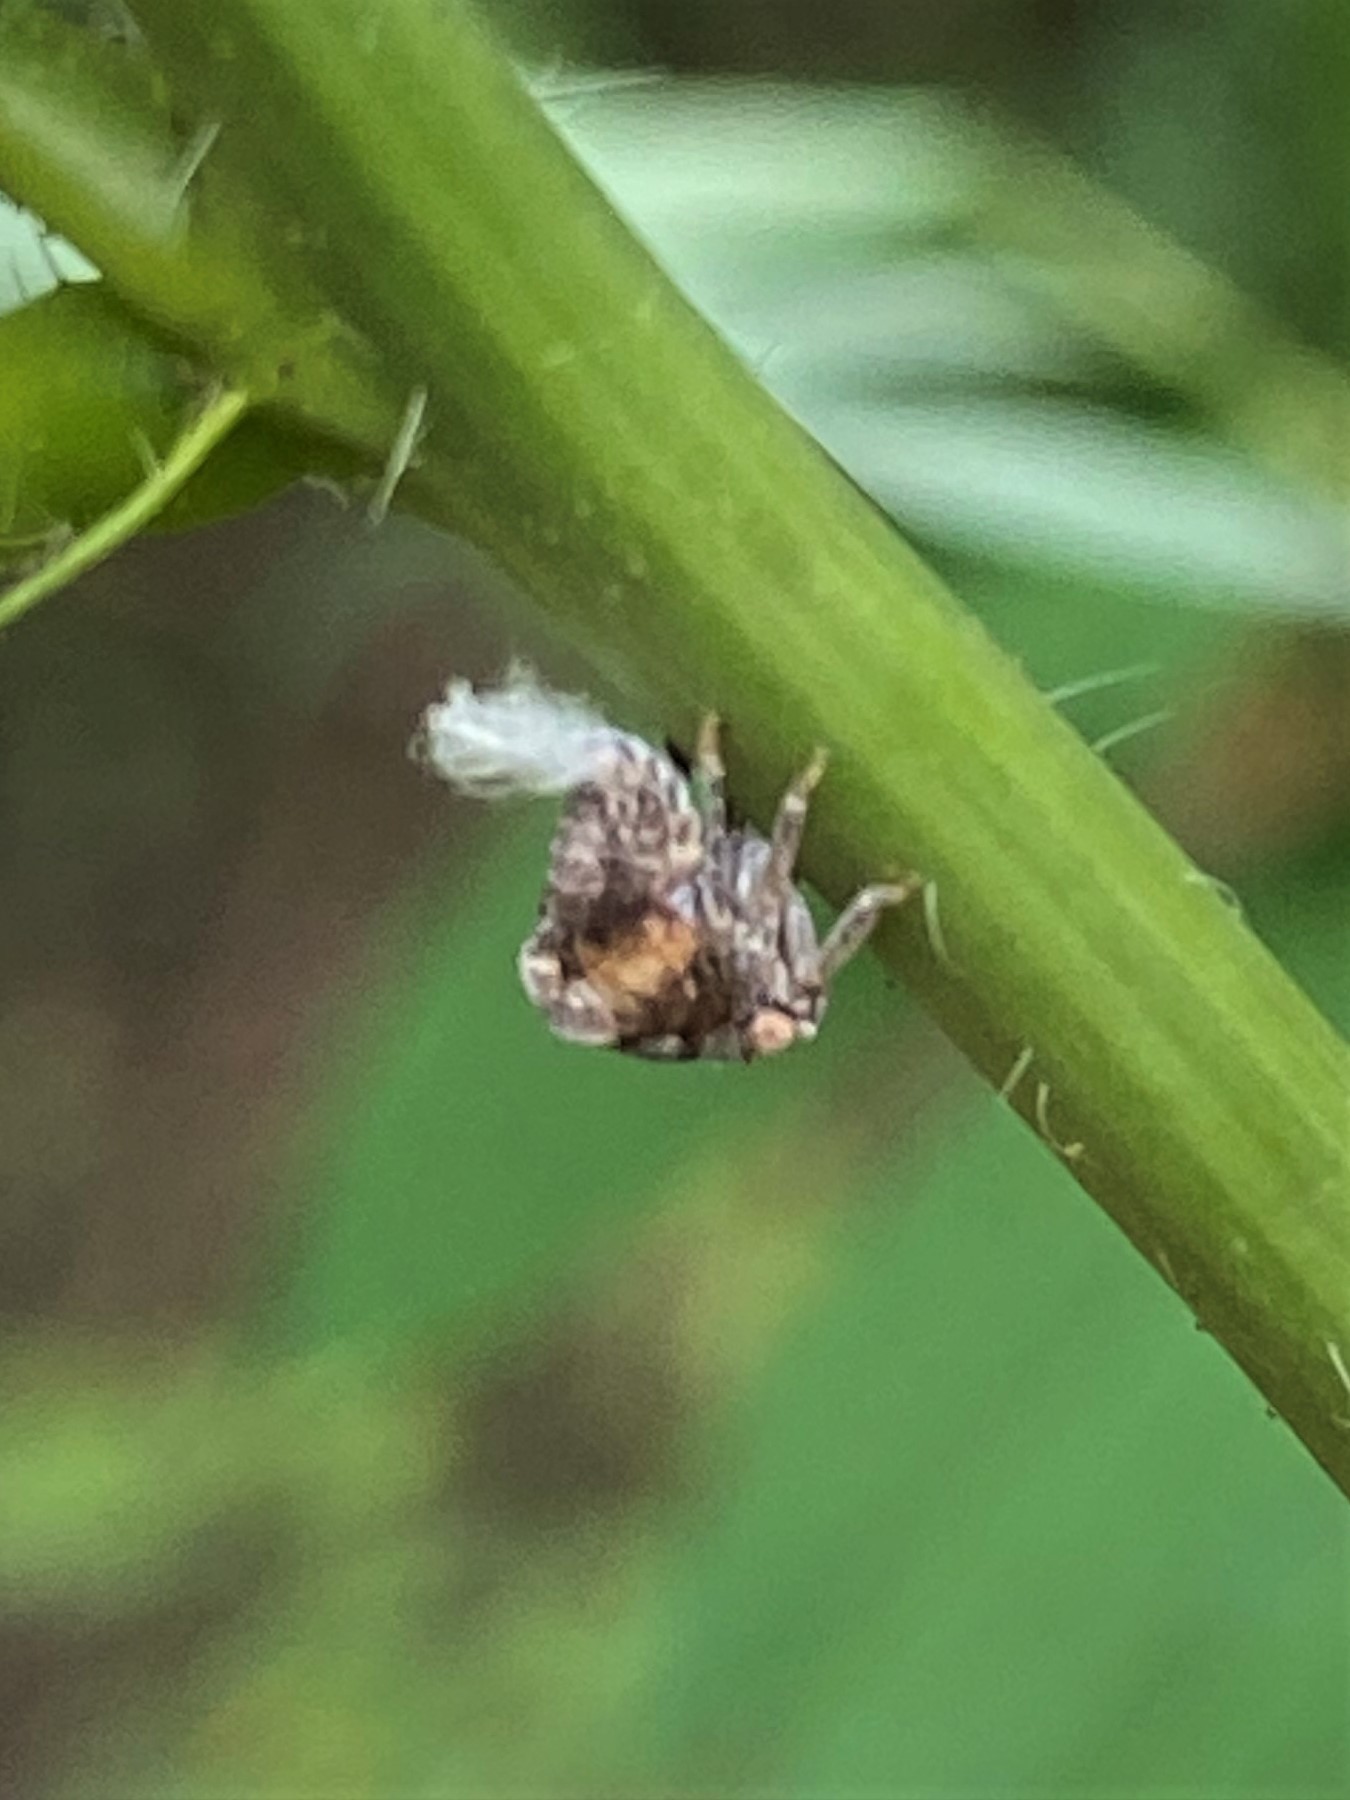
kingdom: Animalia
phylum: Arthropoda
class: Insecta
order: Hemiptera
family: Acanaloniidae
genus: Acanalonia
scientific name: Acanalonia bivittata
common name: Two-striped planthopper
